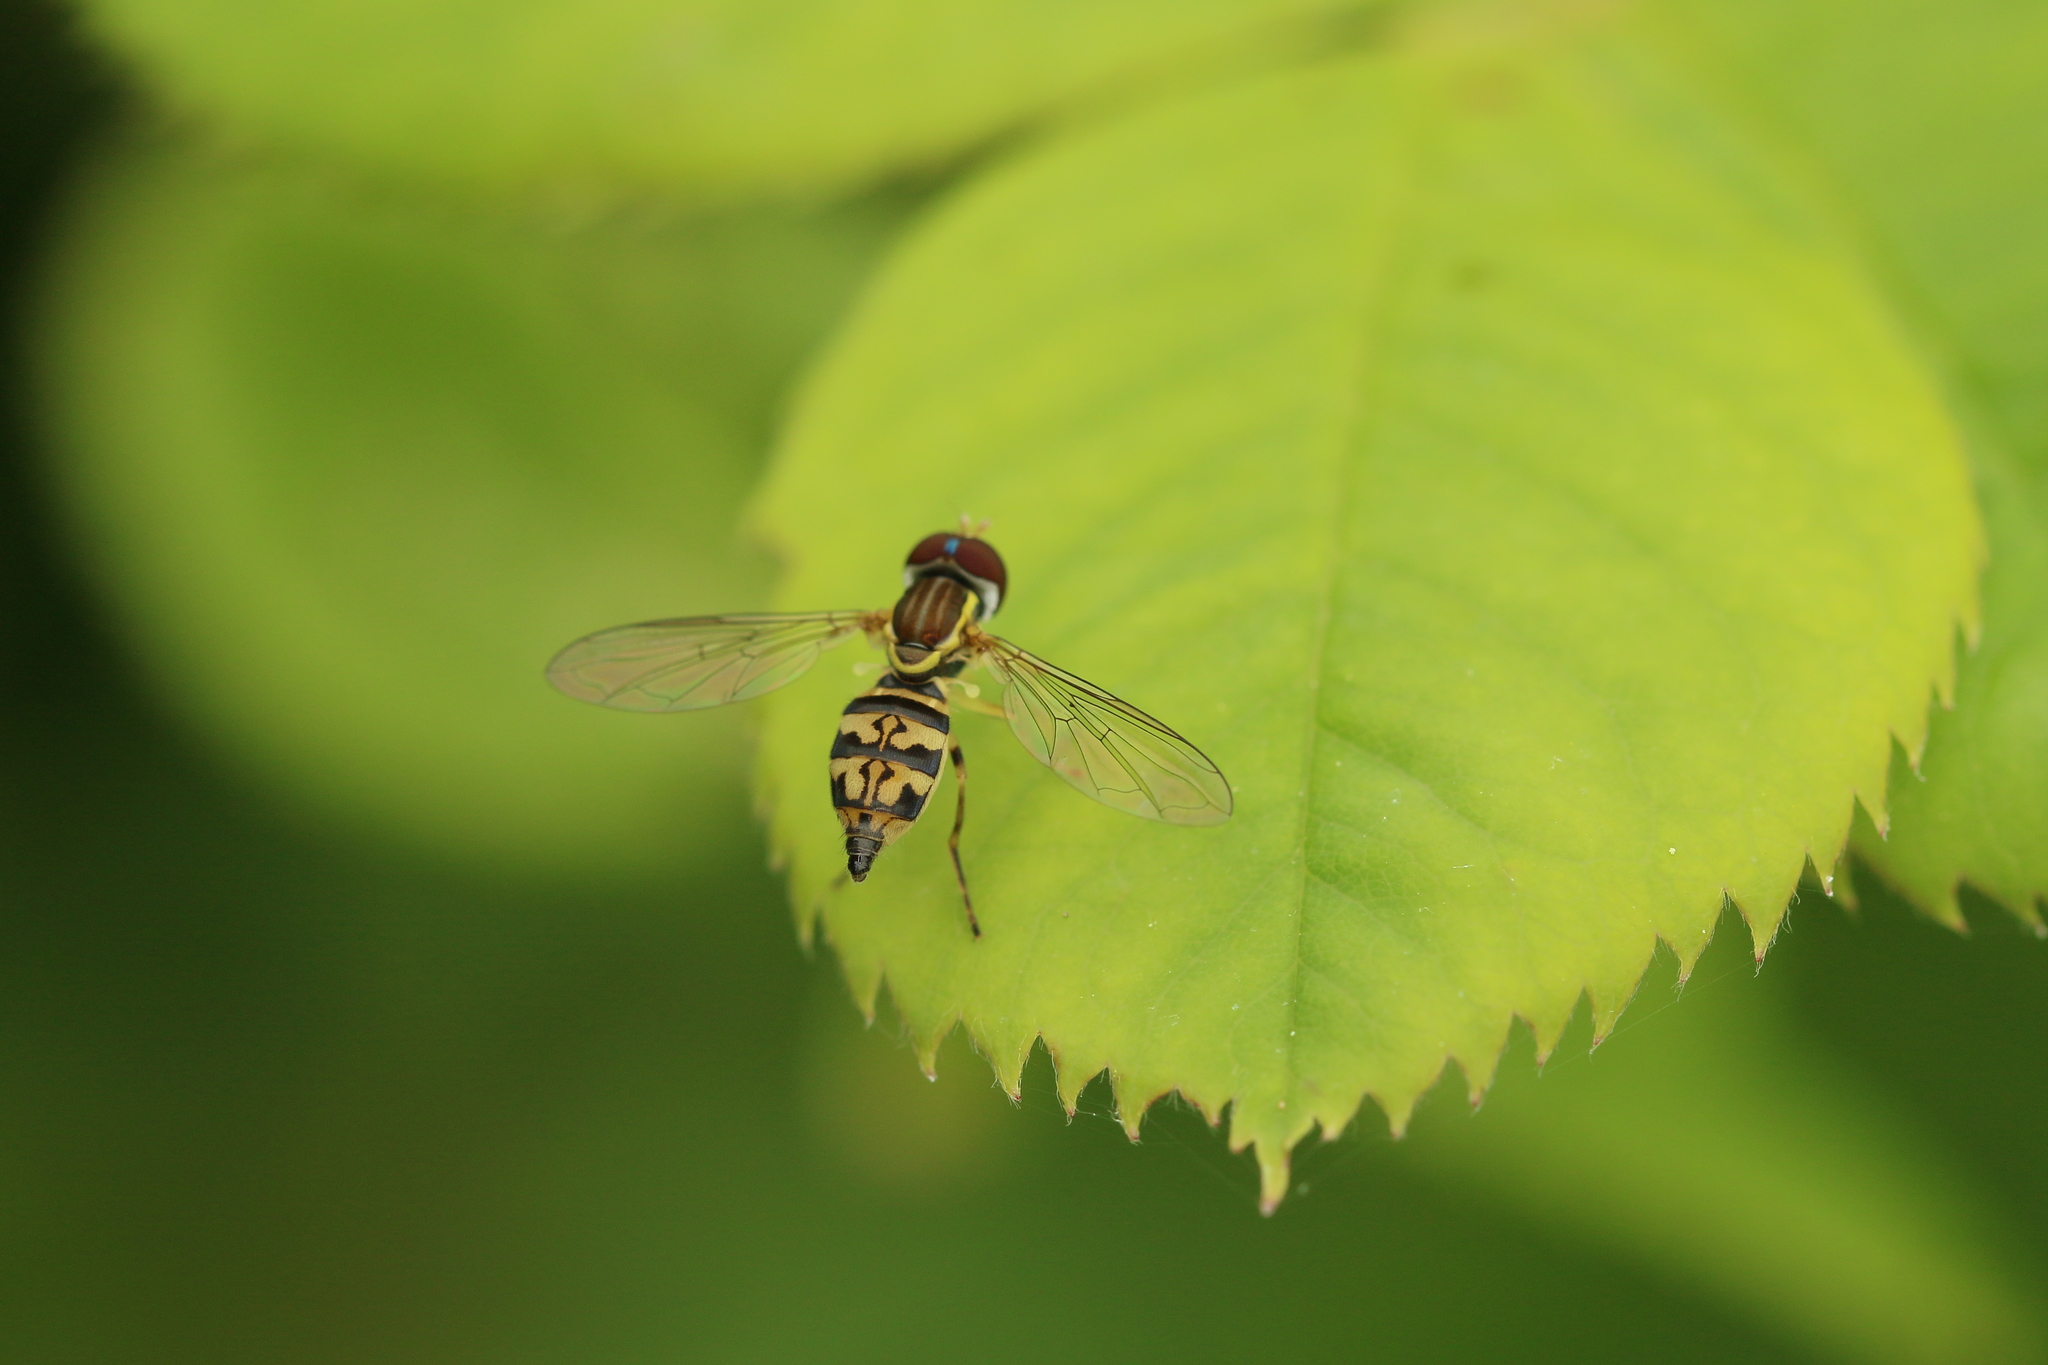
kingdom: Animalia
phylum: Arthropoda
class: Insecta
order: Diptera
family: Syrphidae
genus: Toxomerus
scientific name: Toxomerus geminatus
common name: Eastern calligrapher
